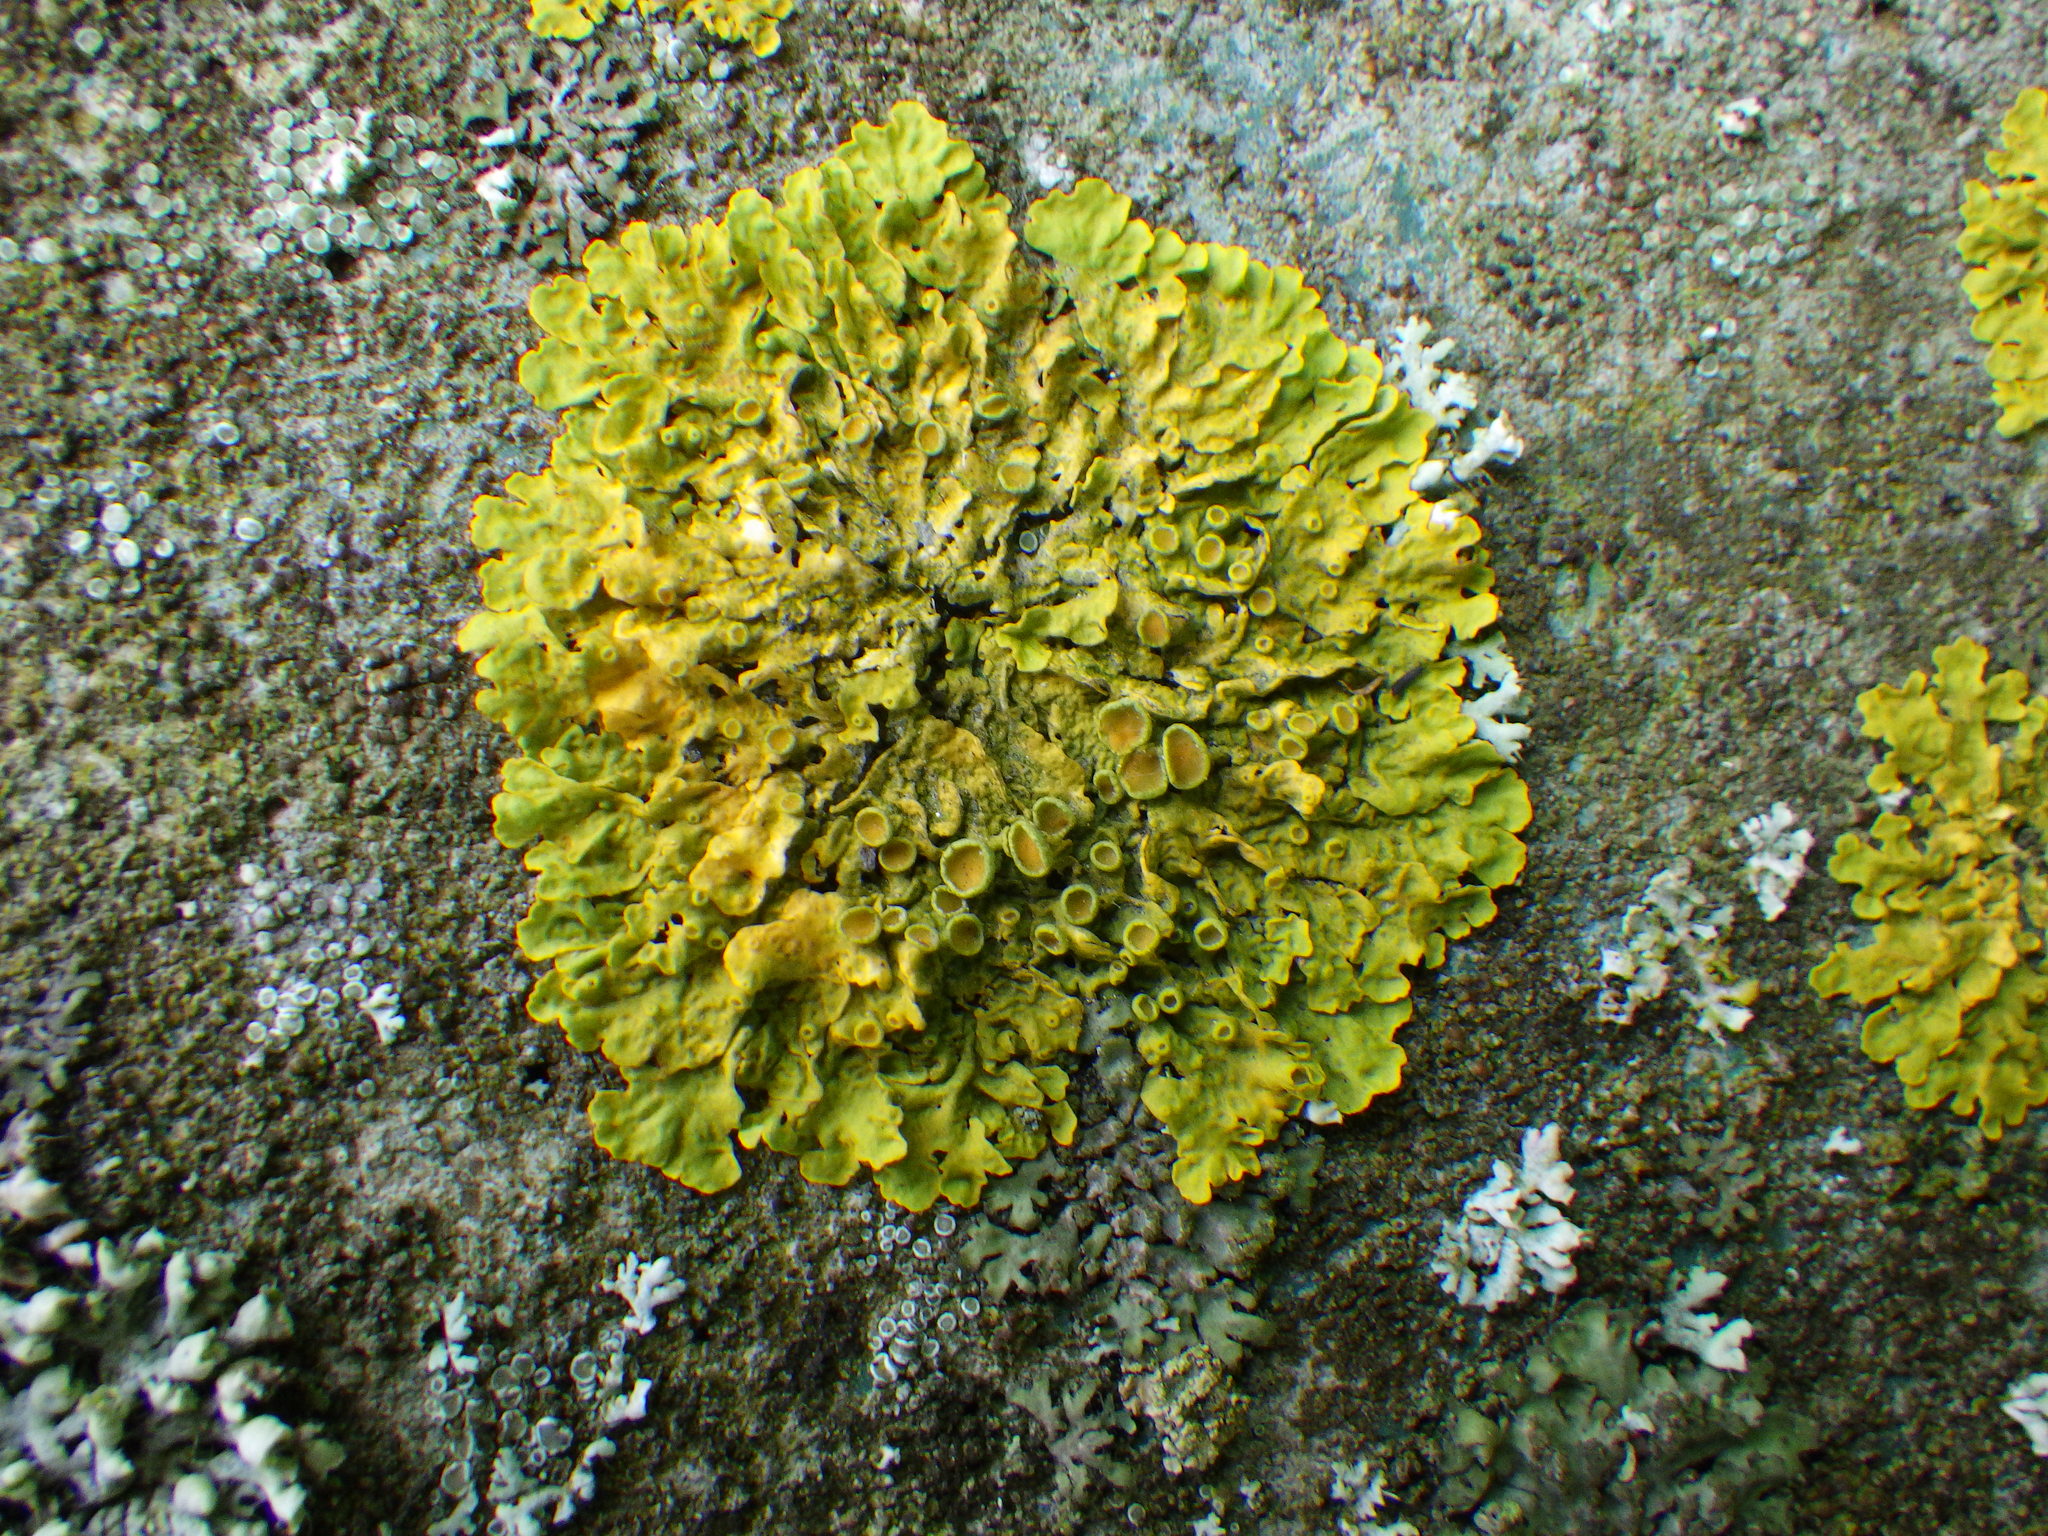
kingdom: Fungi
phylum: Ascomycota
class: Lecanoromycetes
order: Teloschistales
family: Teloschistaceae
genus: Xanthoria
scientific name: Xanthoria parietina
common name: Common orange lichen
